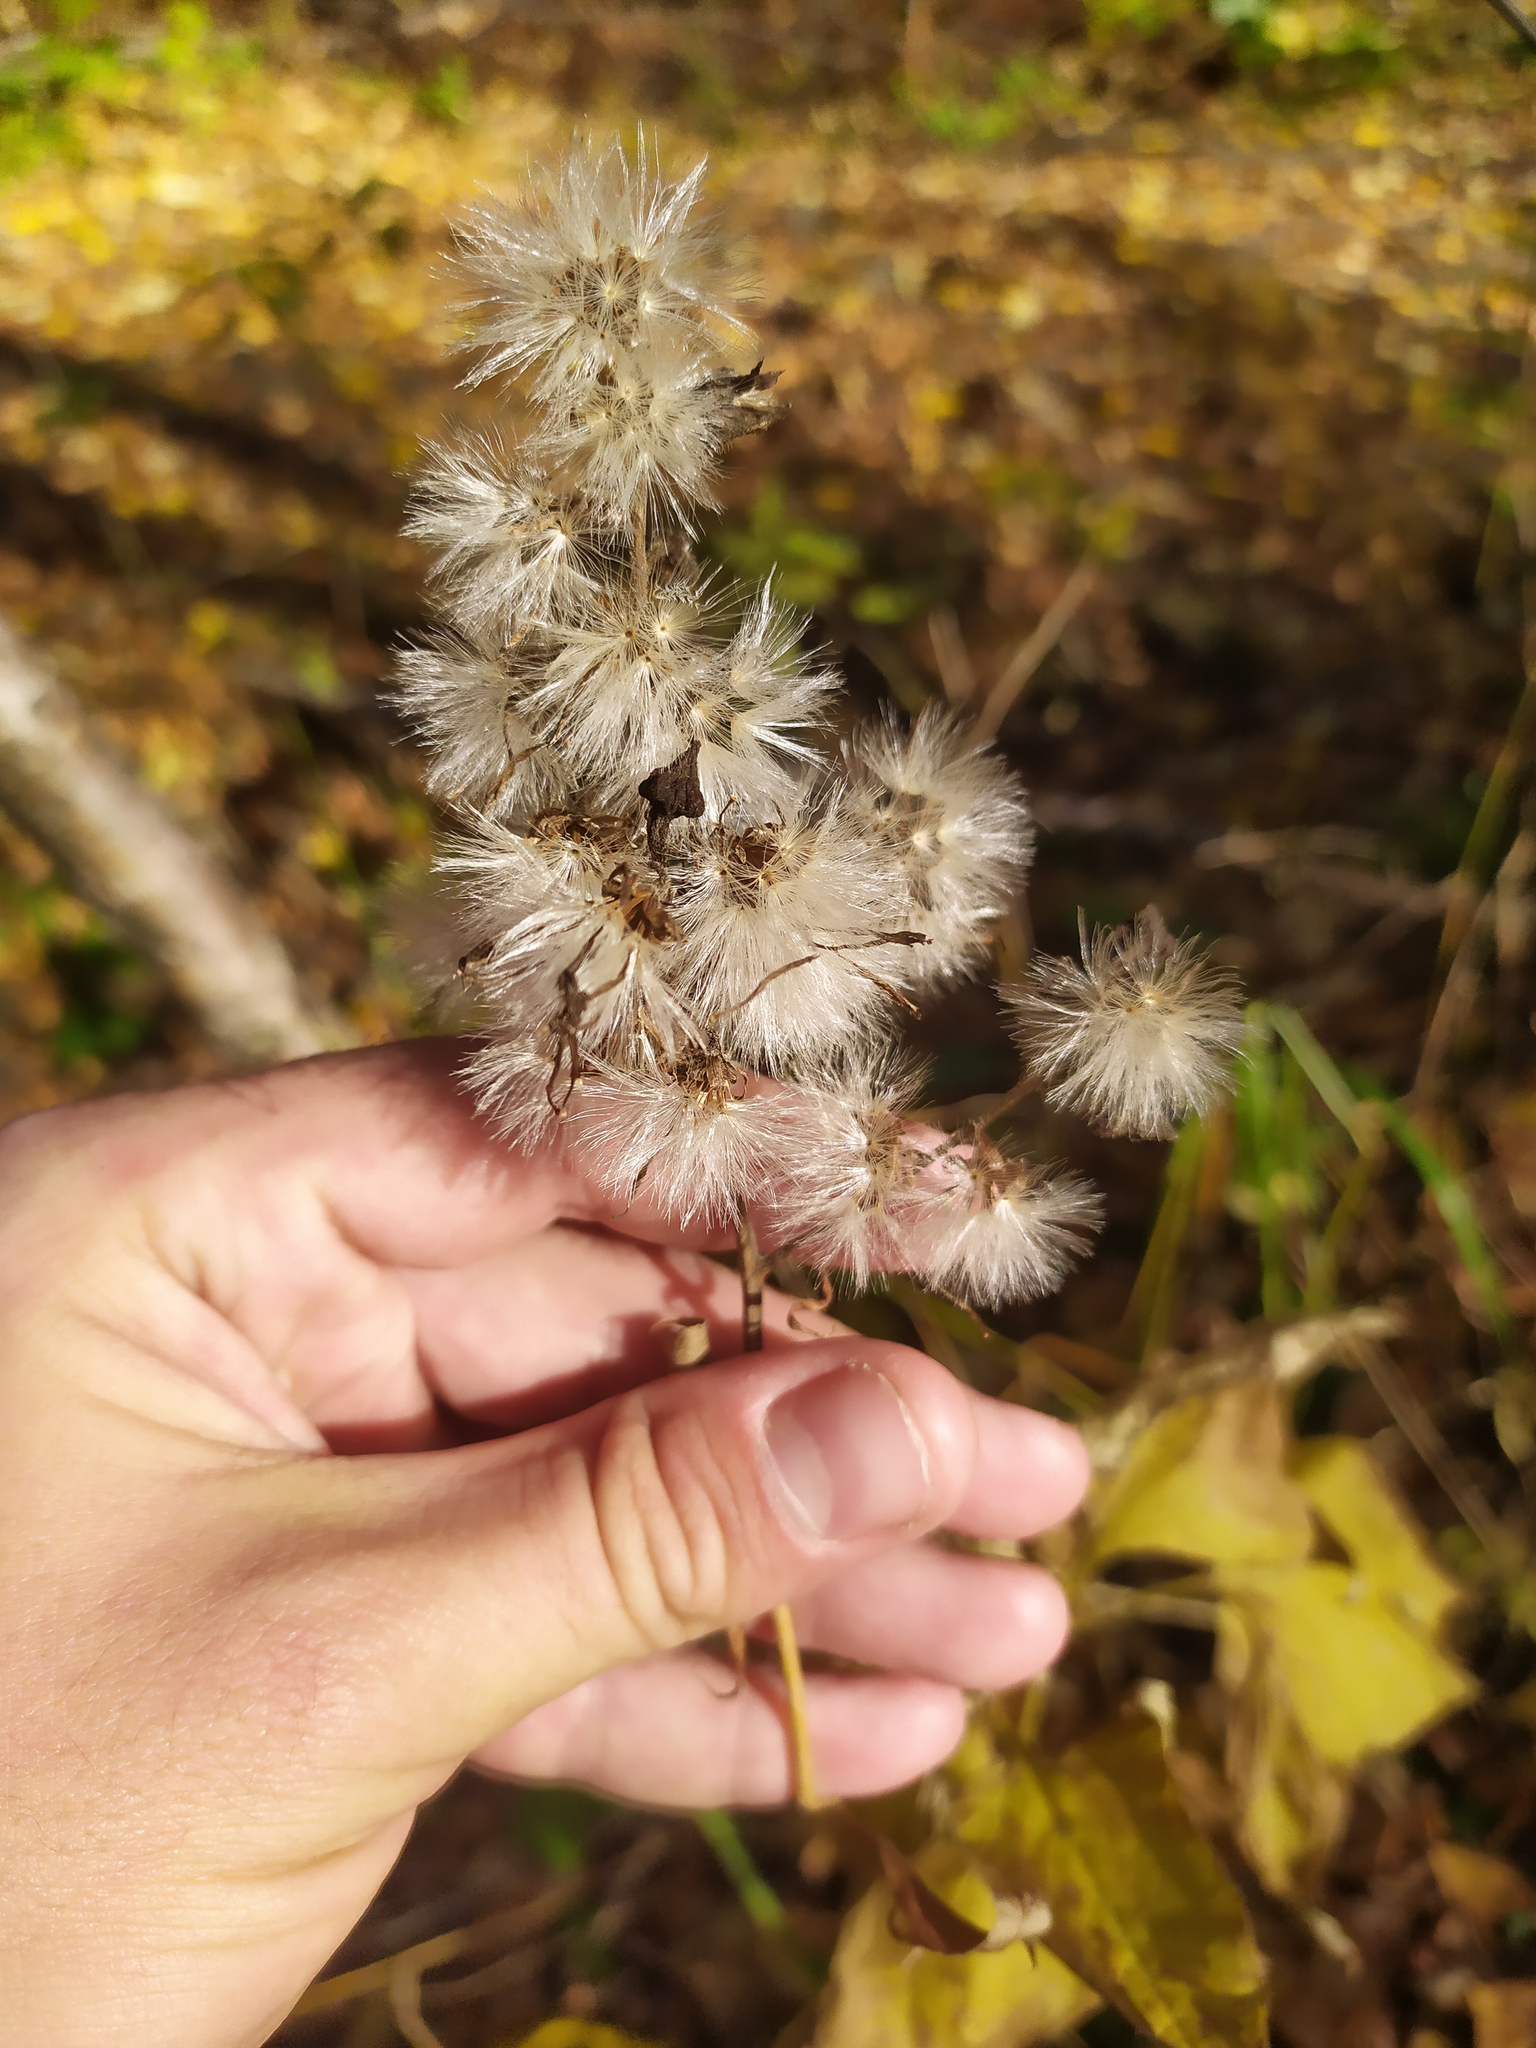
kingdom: Plantae
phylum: Tracheophyta
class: Magnoliopsida
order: Asterales
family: Asteraceae
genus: Parasenecio
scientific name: Parasenecio hastatus
